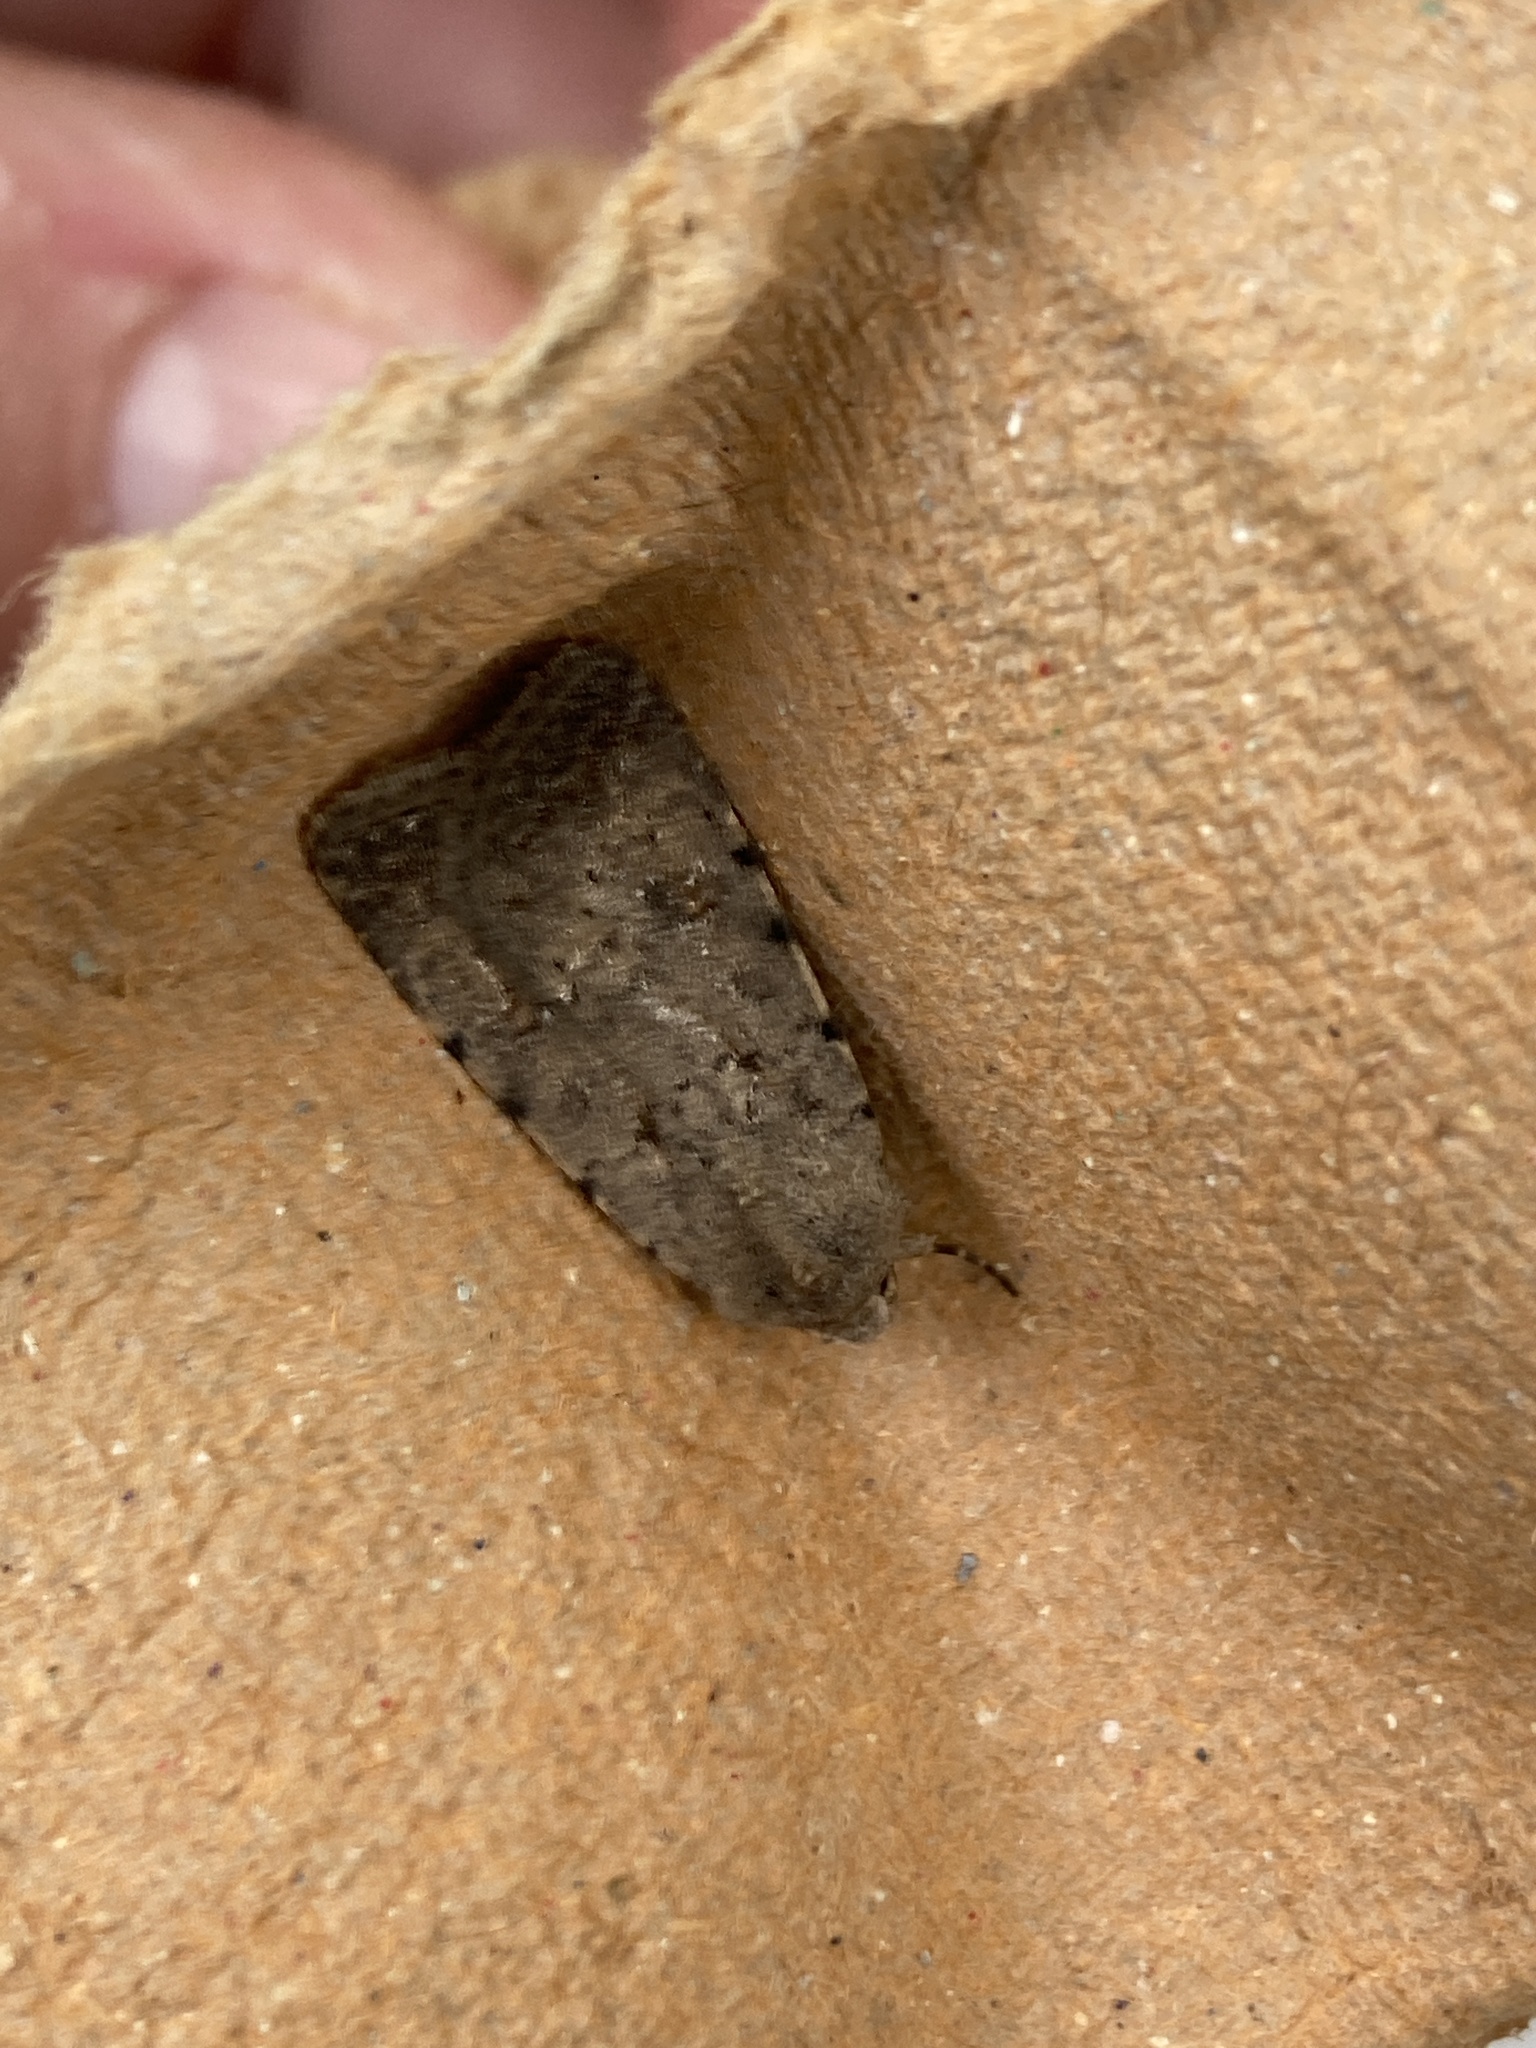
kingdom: Animalia
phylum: Arthropoda
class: Insecta
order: Lepidoptera
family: Noctuidae
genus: Caradrina
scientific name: Caradrina clavipalpis
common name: Pale mottled willow
